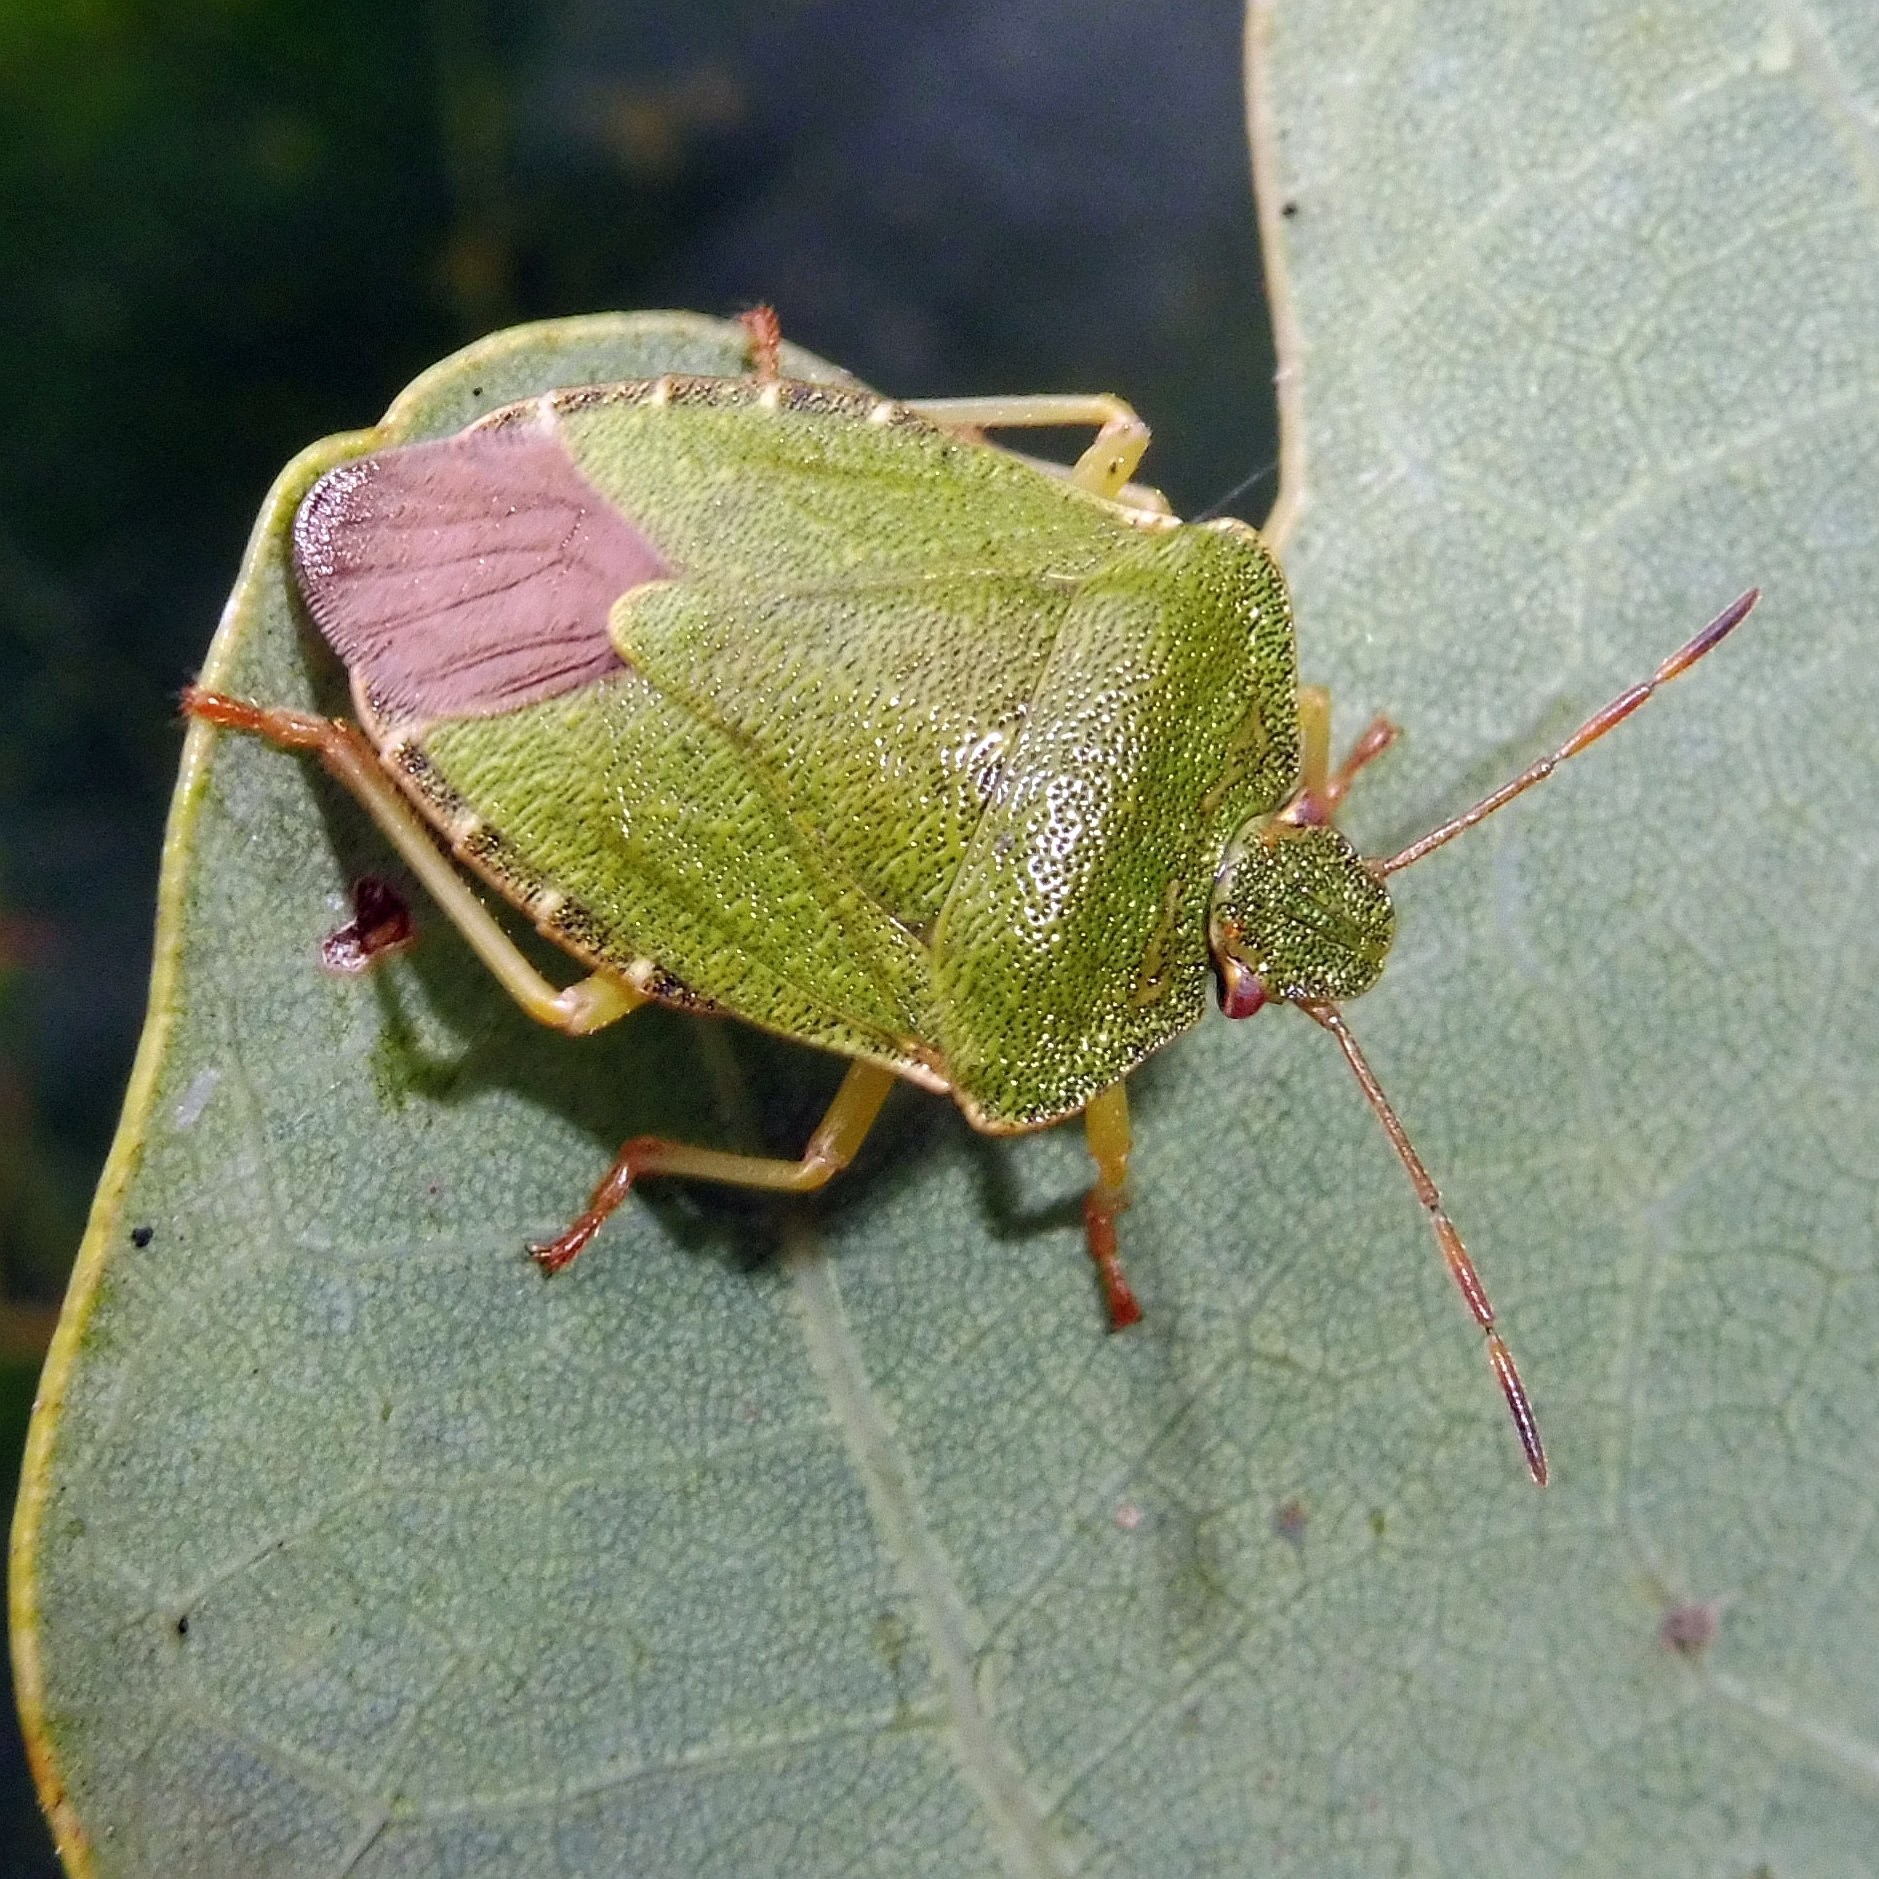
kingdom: Animalia
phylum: Arthropoda
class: Insecta
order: Hemiptera
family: Pentatomidae
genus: Palomena
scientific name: Palomena prasina
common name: Green shieldbug
